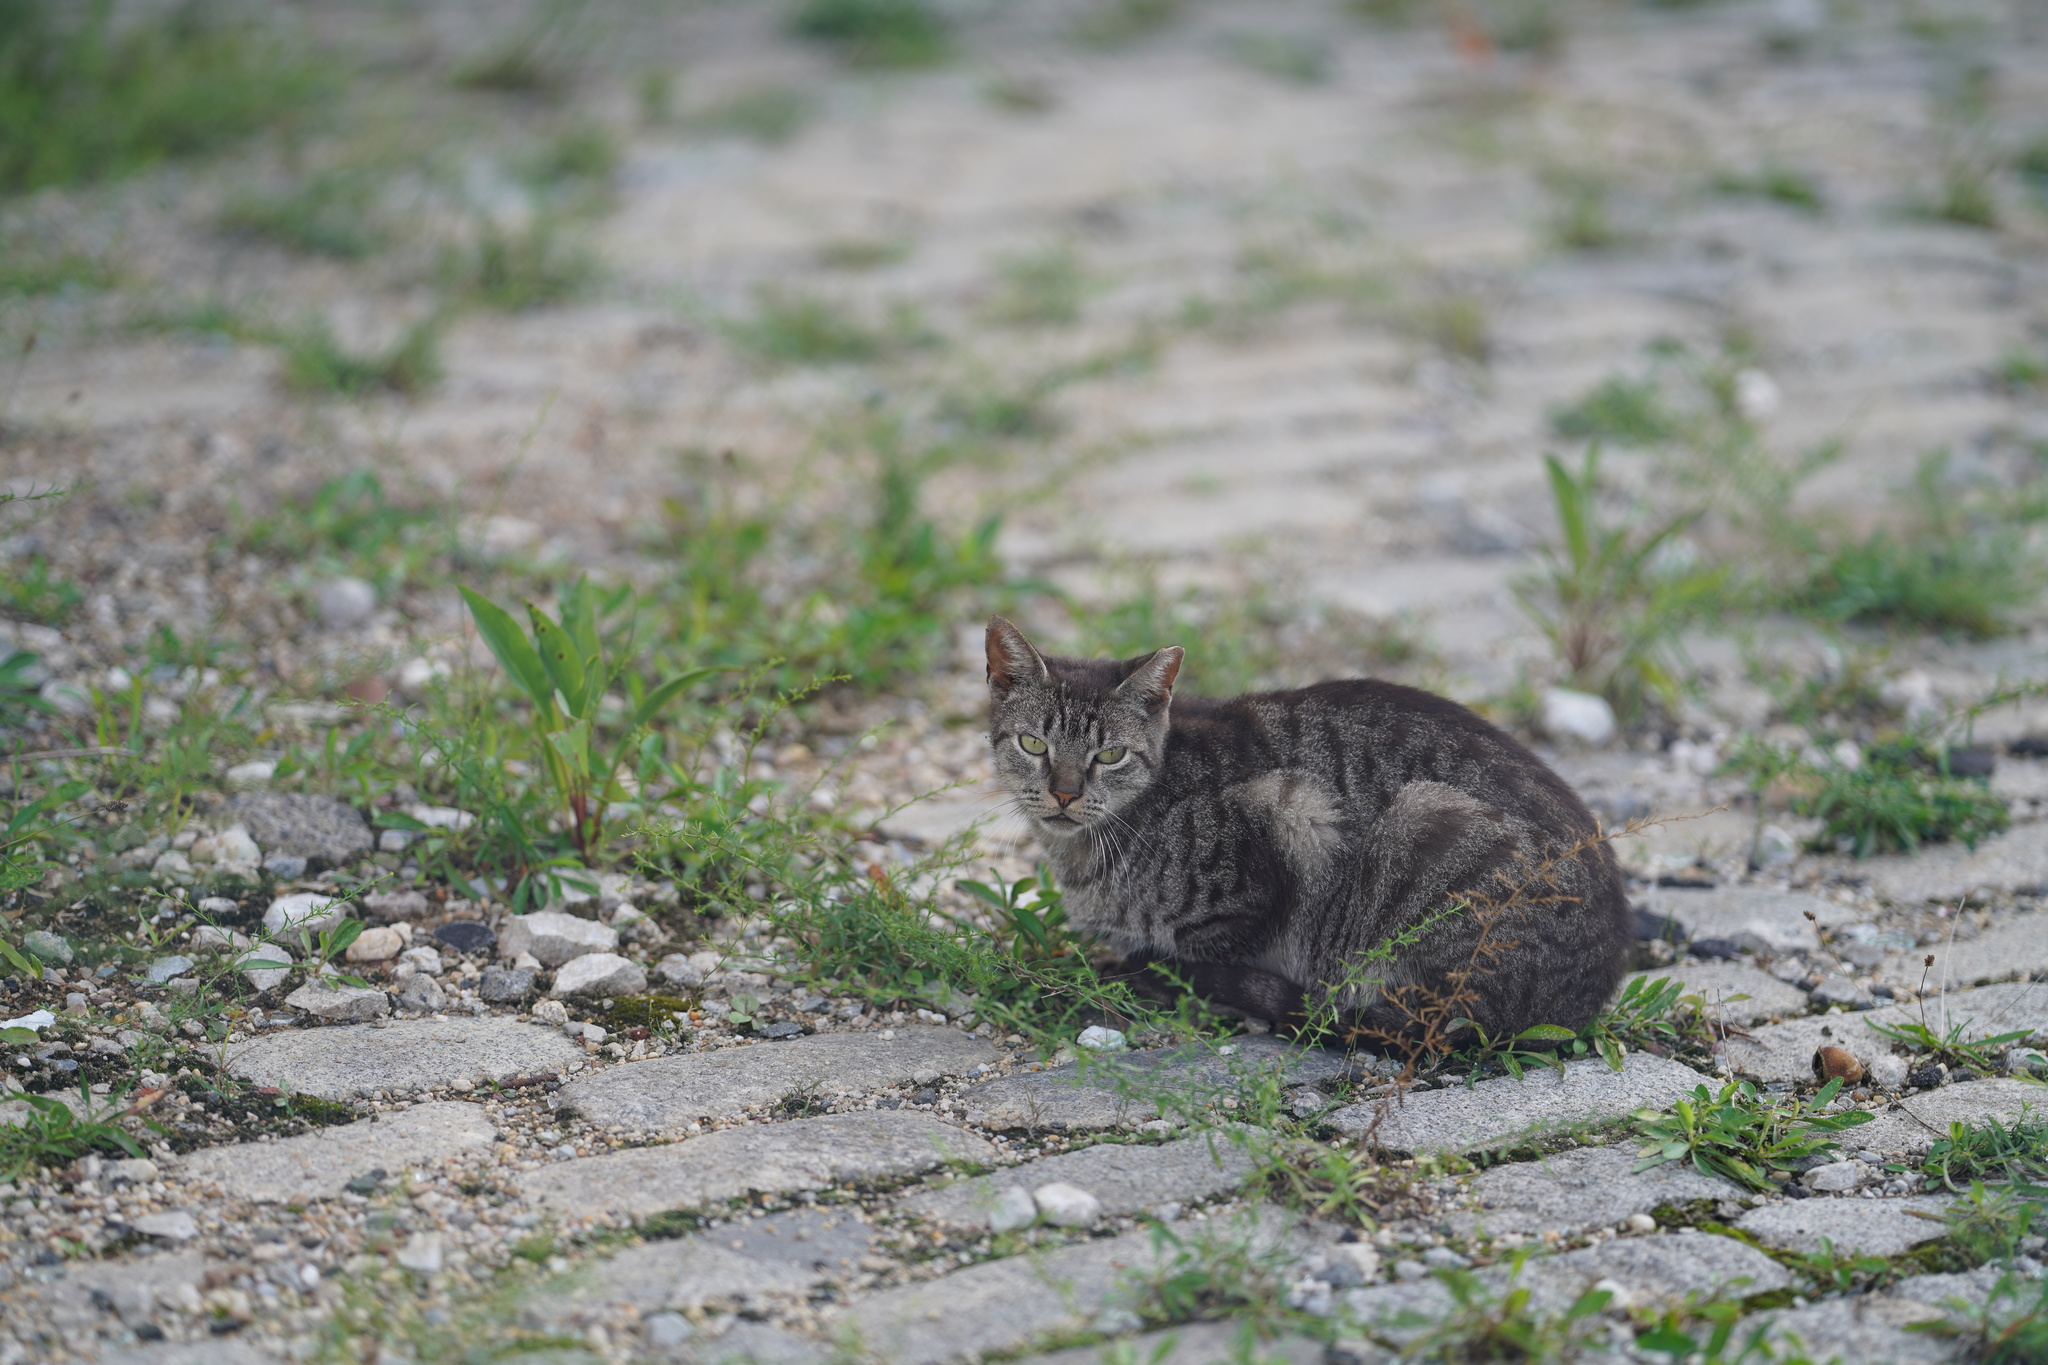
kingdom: Animalia
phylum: Chordata
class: Mammalia
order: Carnivora
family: Felidae
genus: Felis
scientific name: Felis catus
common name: Domestic cat
